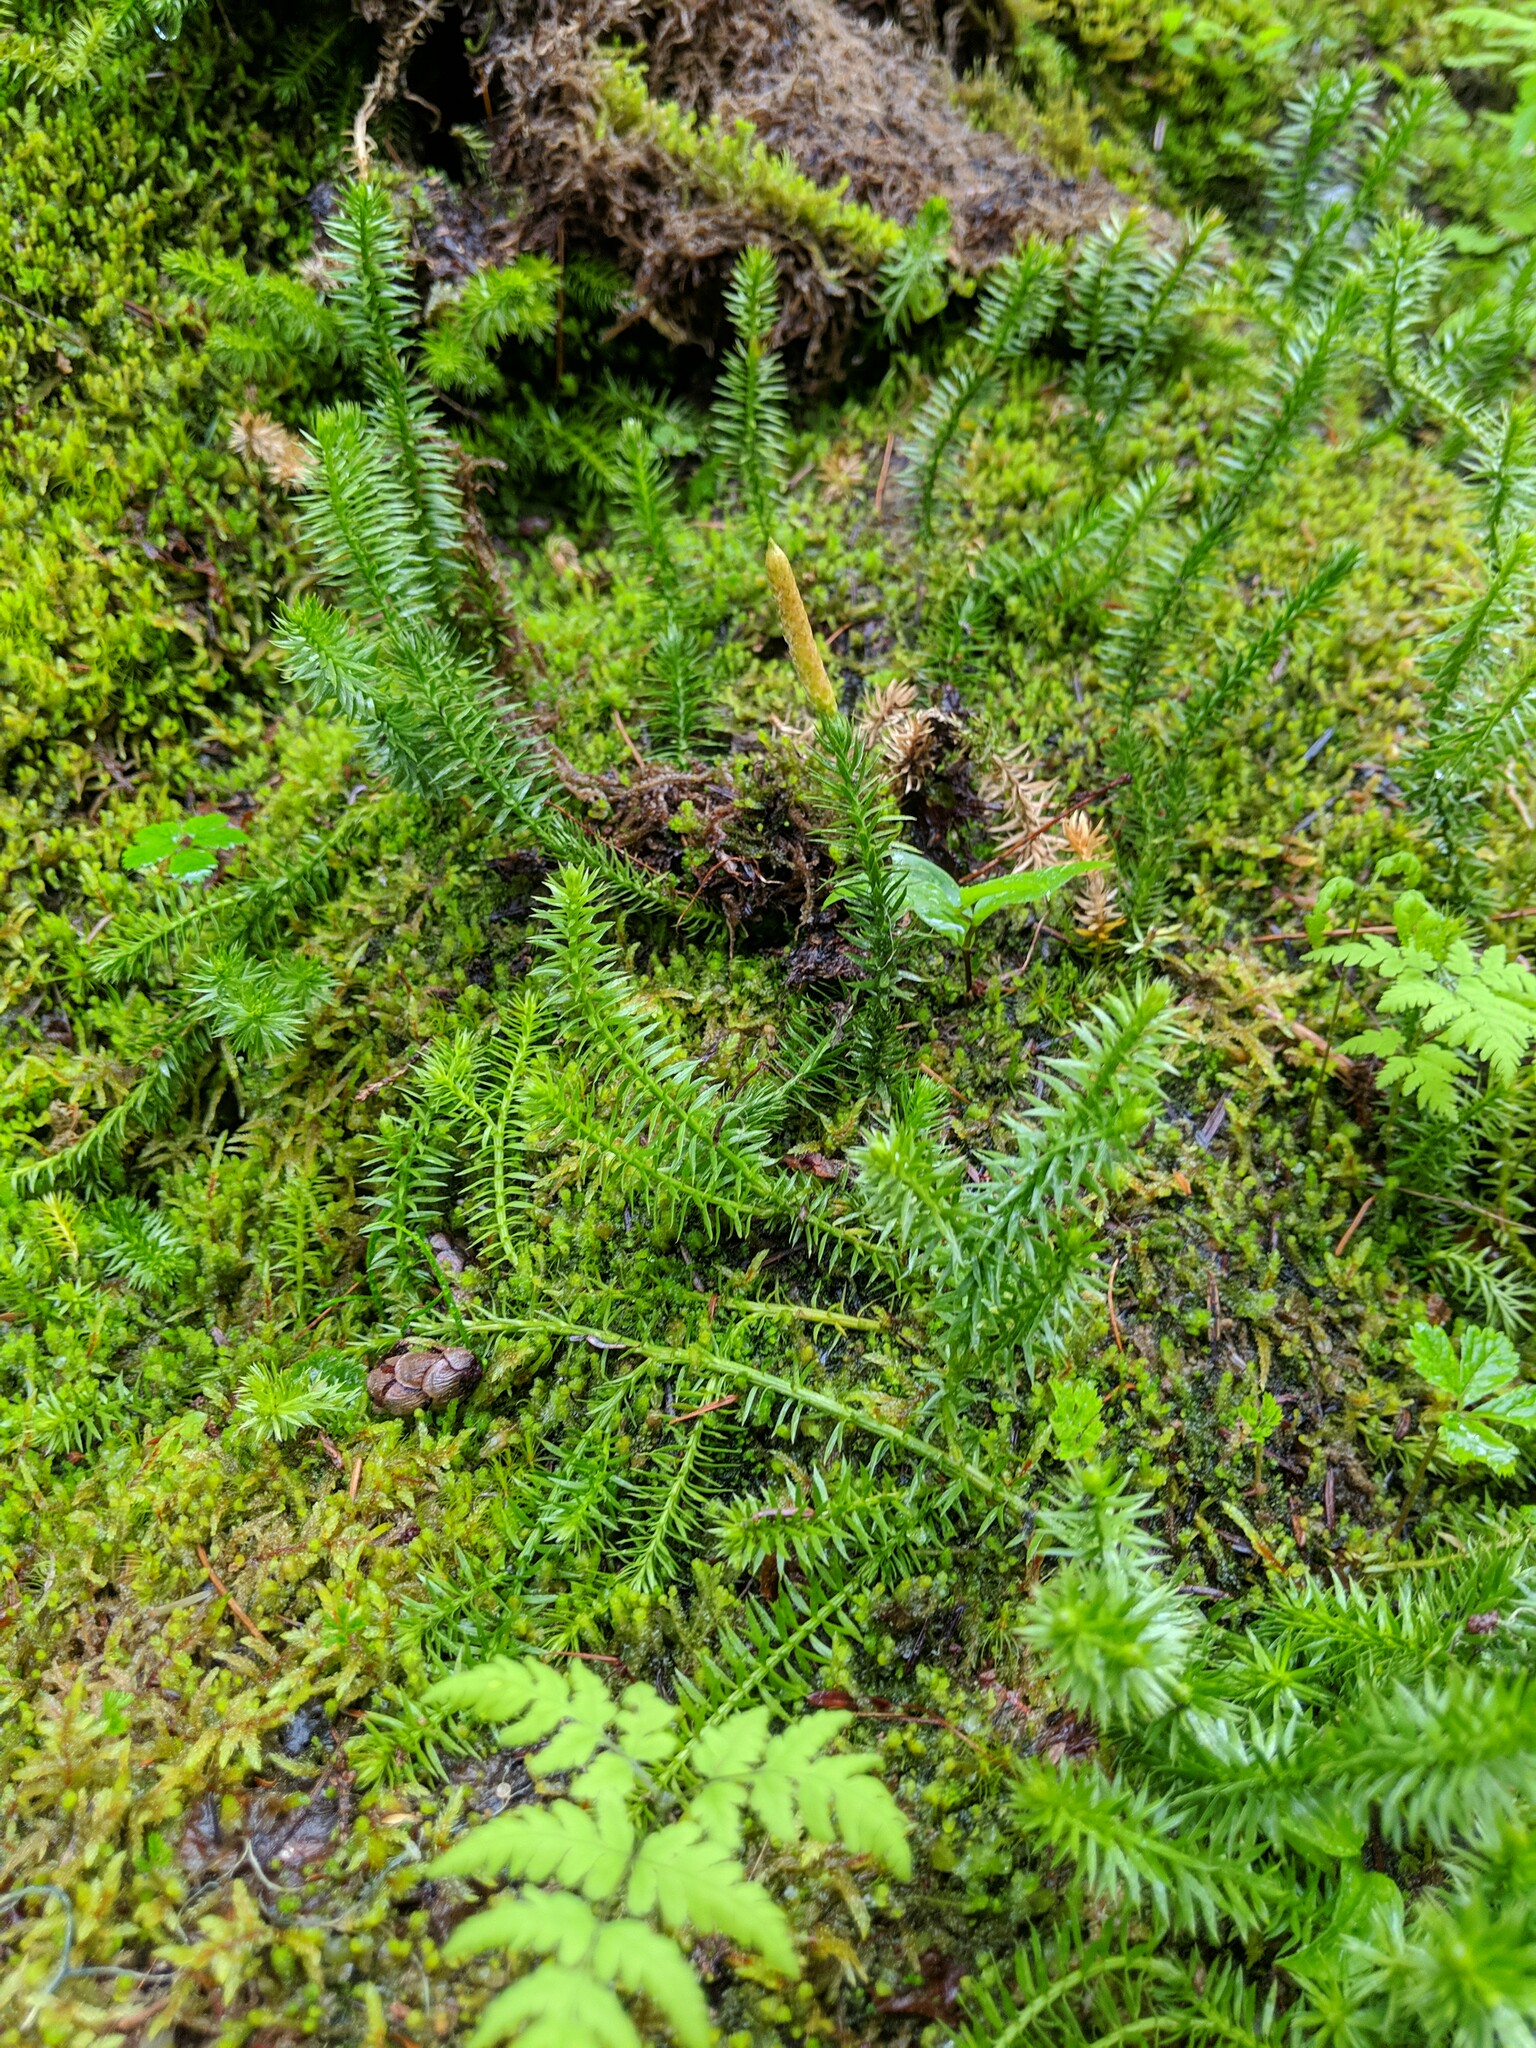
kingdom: Plantae
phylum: Tracheophyta
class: Lycopodiopsida
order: Lycopodiales
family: Lycopodiaceae
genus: Spinulum
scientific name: Spinulum annotinum
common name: Interrupted club-moss
